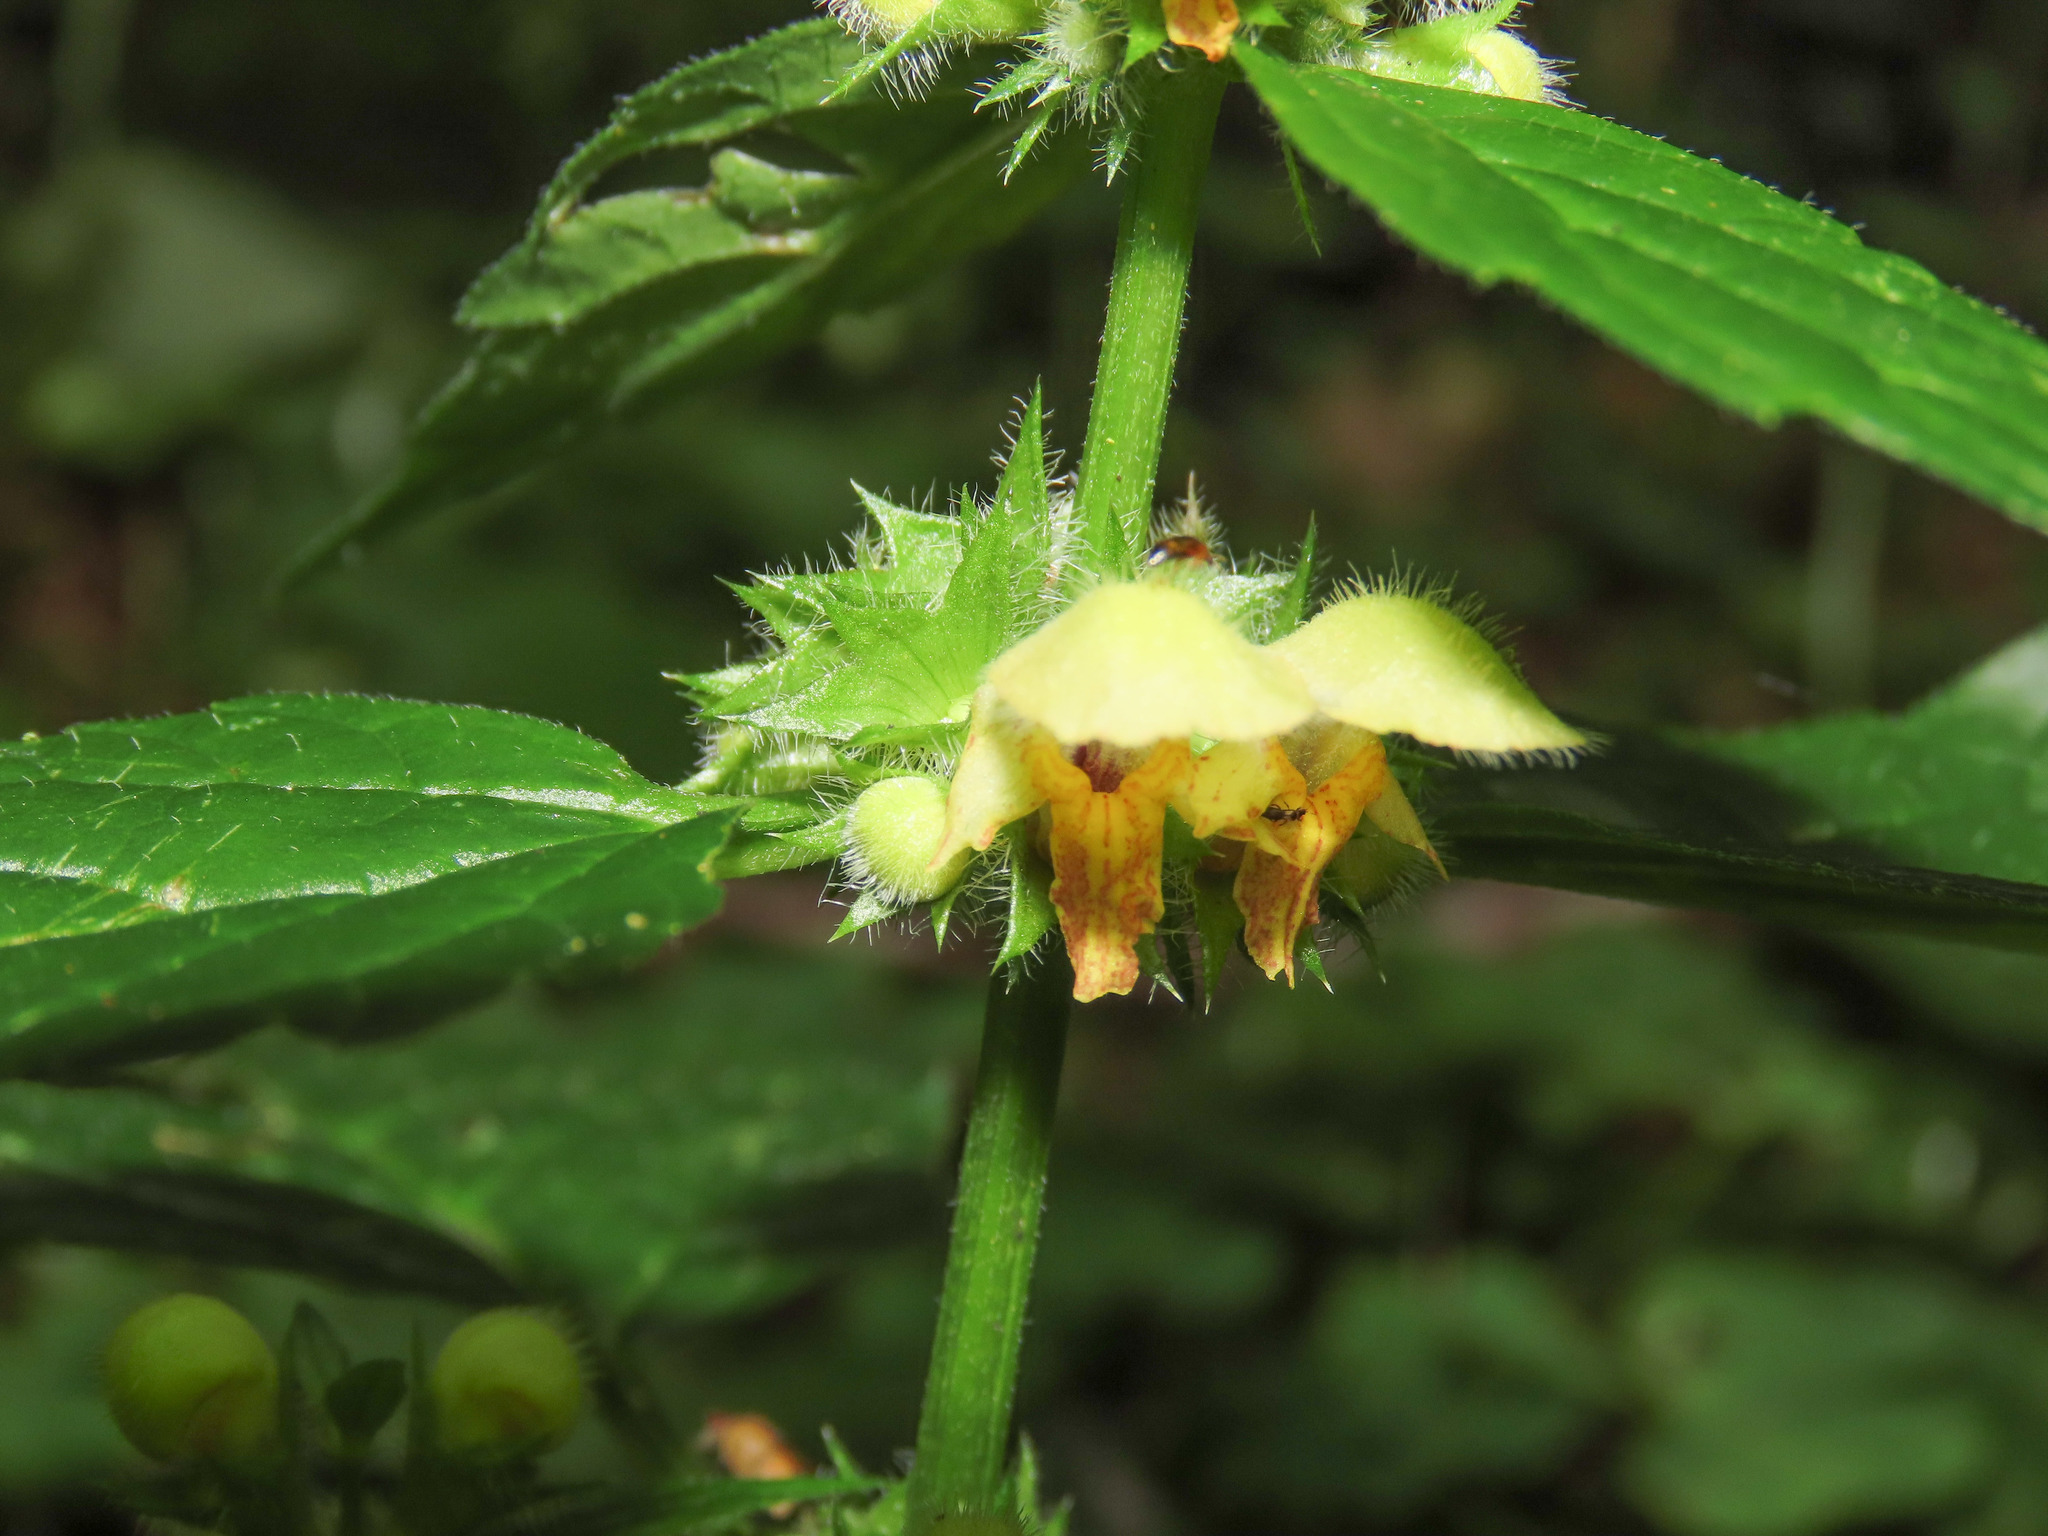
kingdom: Plantae
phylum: Tracheophyta
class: Magnoliopsida
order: Lamiales
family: Lamiaceae
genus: Lamium
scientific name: Lamium galeobdolon
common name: Yellow archangel
